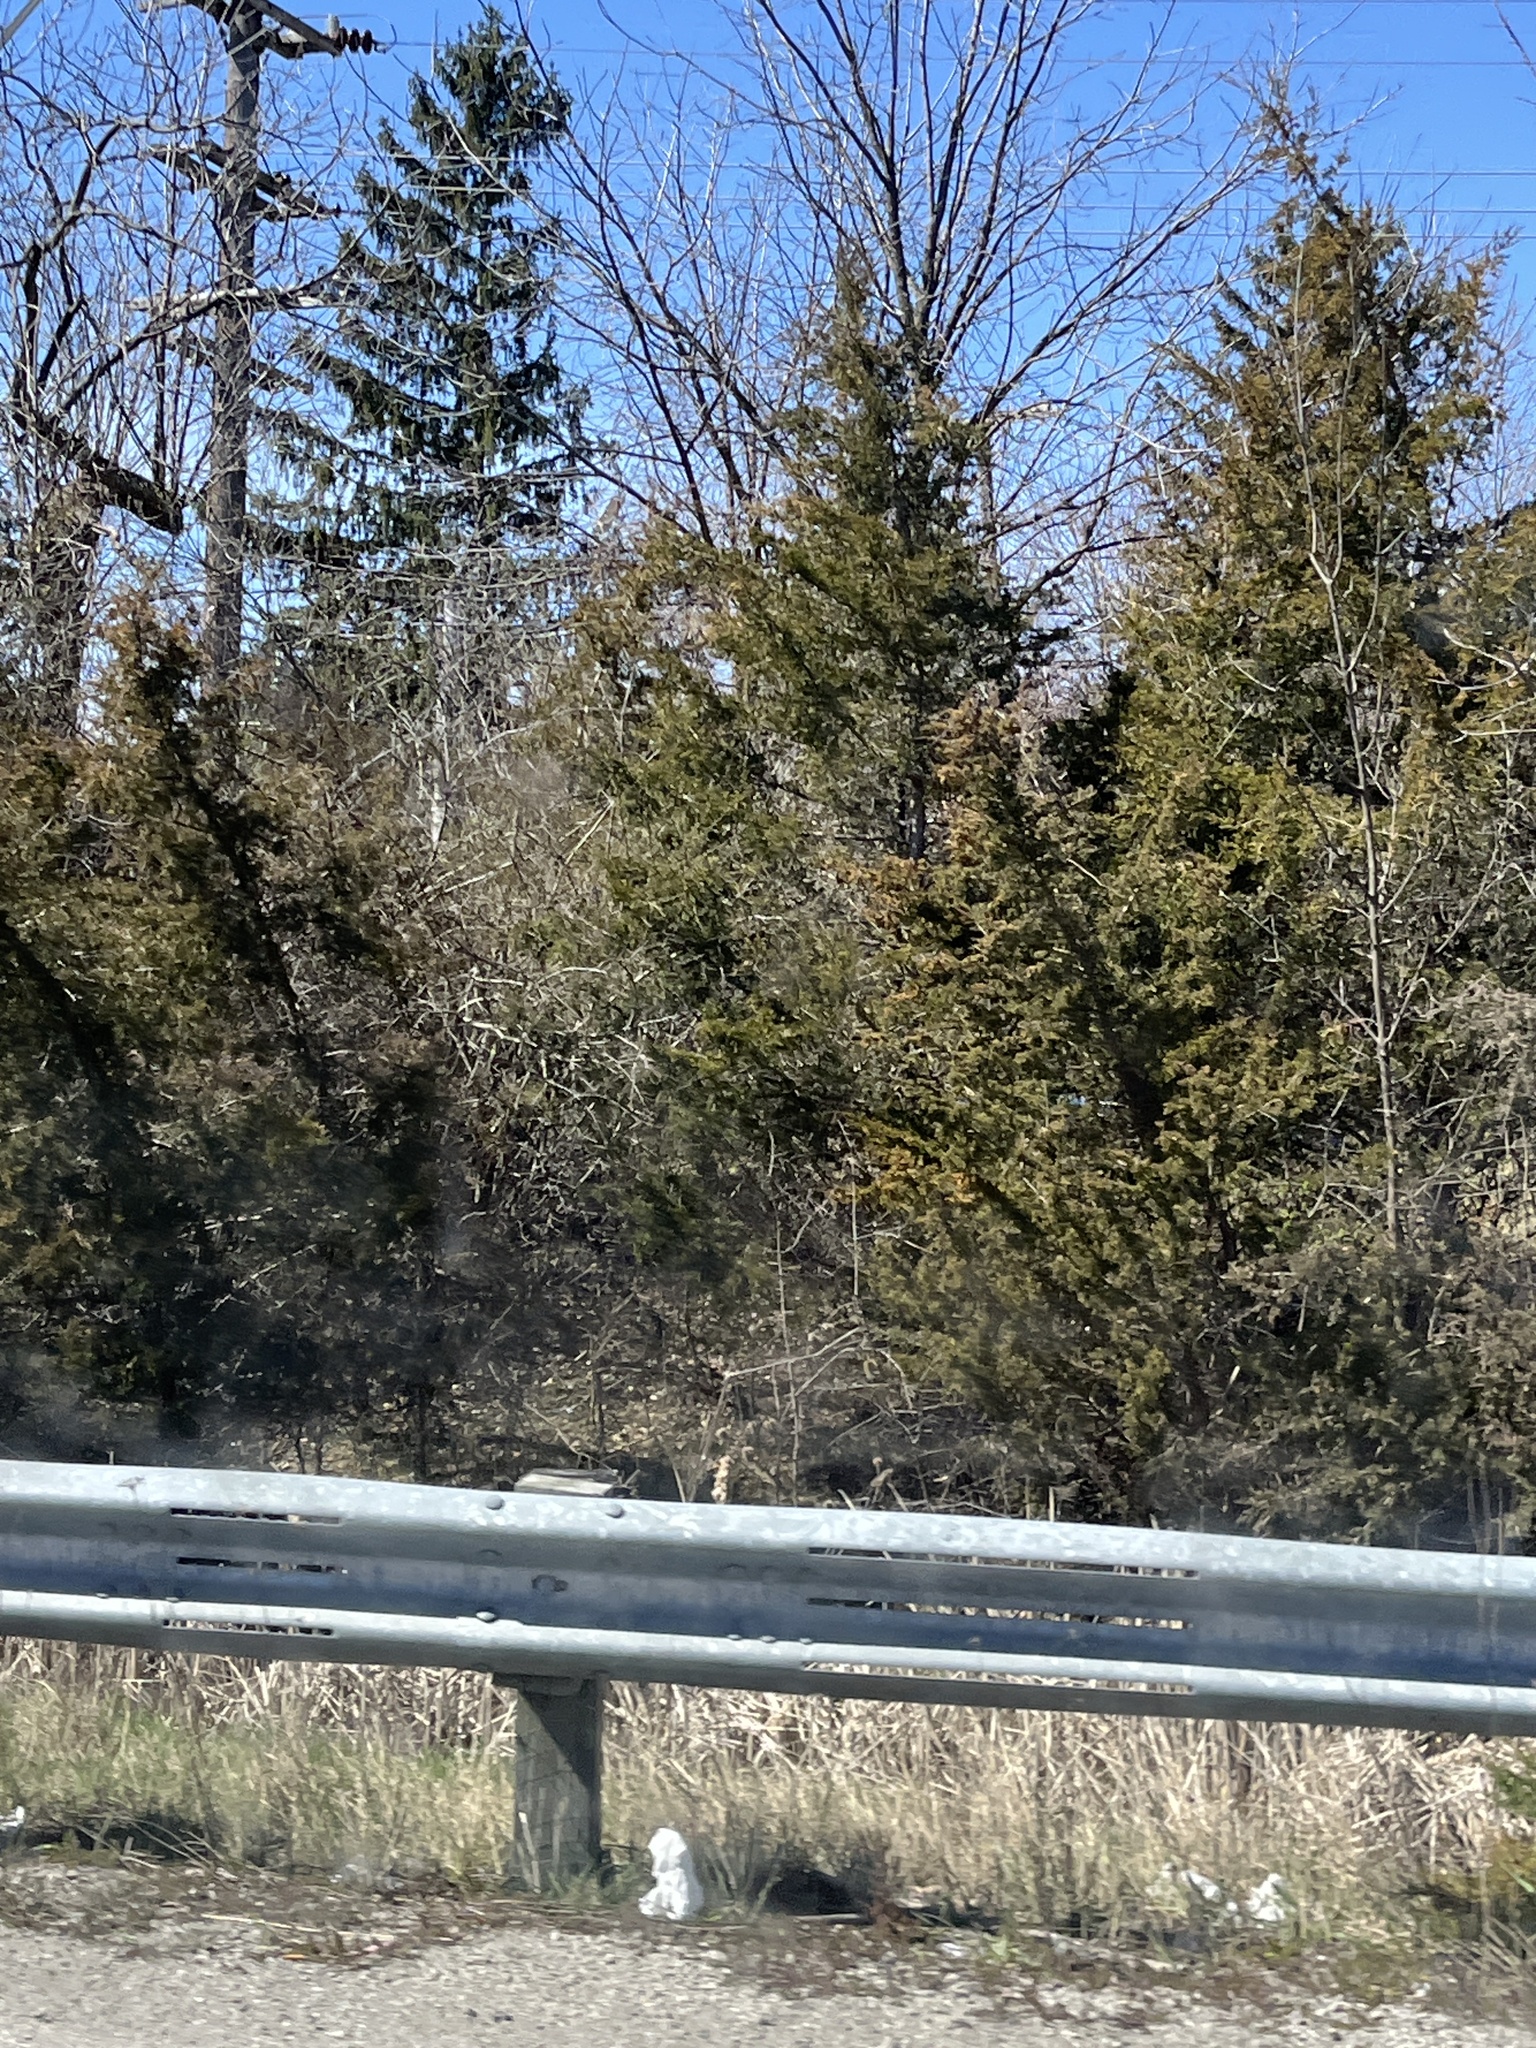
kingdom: Plantae
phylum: Tracheophyta
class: Pinopsida
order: Pinales
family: Cupressaceae
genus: Juniperus
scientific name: Juniperus virginiana
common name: Red juniper
